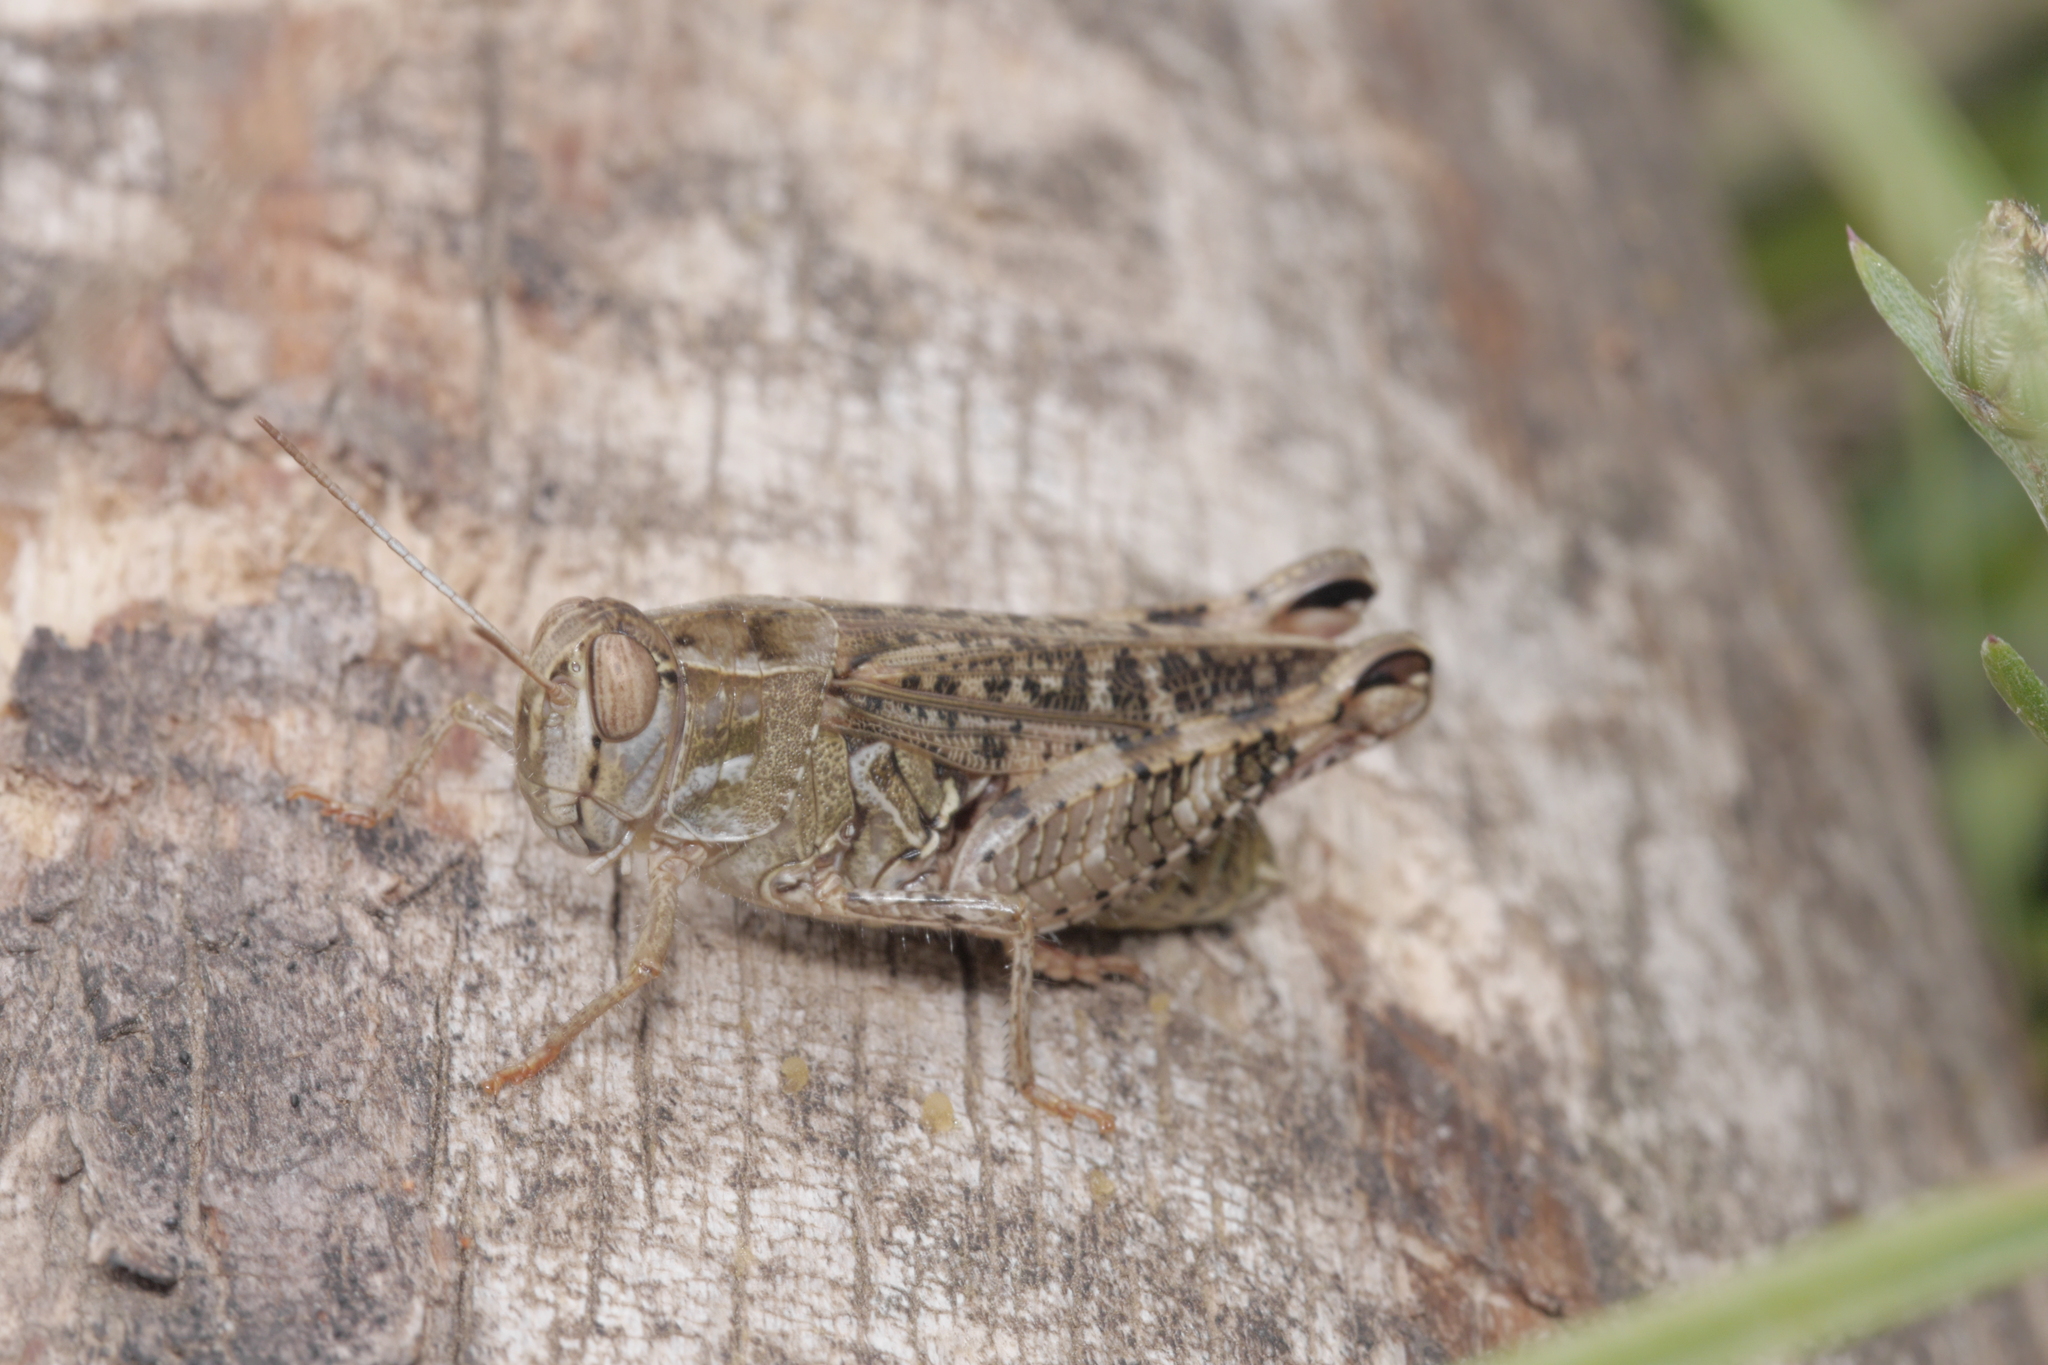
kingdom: Animalia
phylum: Arthropoda
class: Insecta
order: Orthoptera
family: Acrididae
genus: Calliptamus
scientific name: Calliptamus italicus
